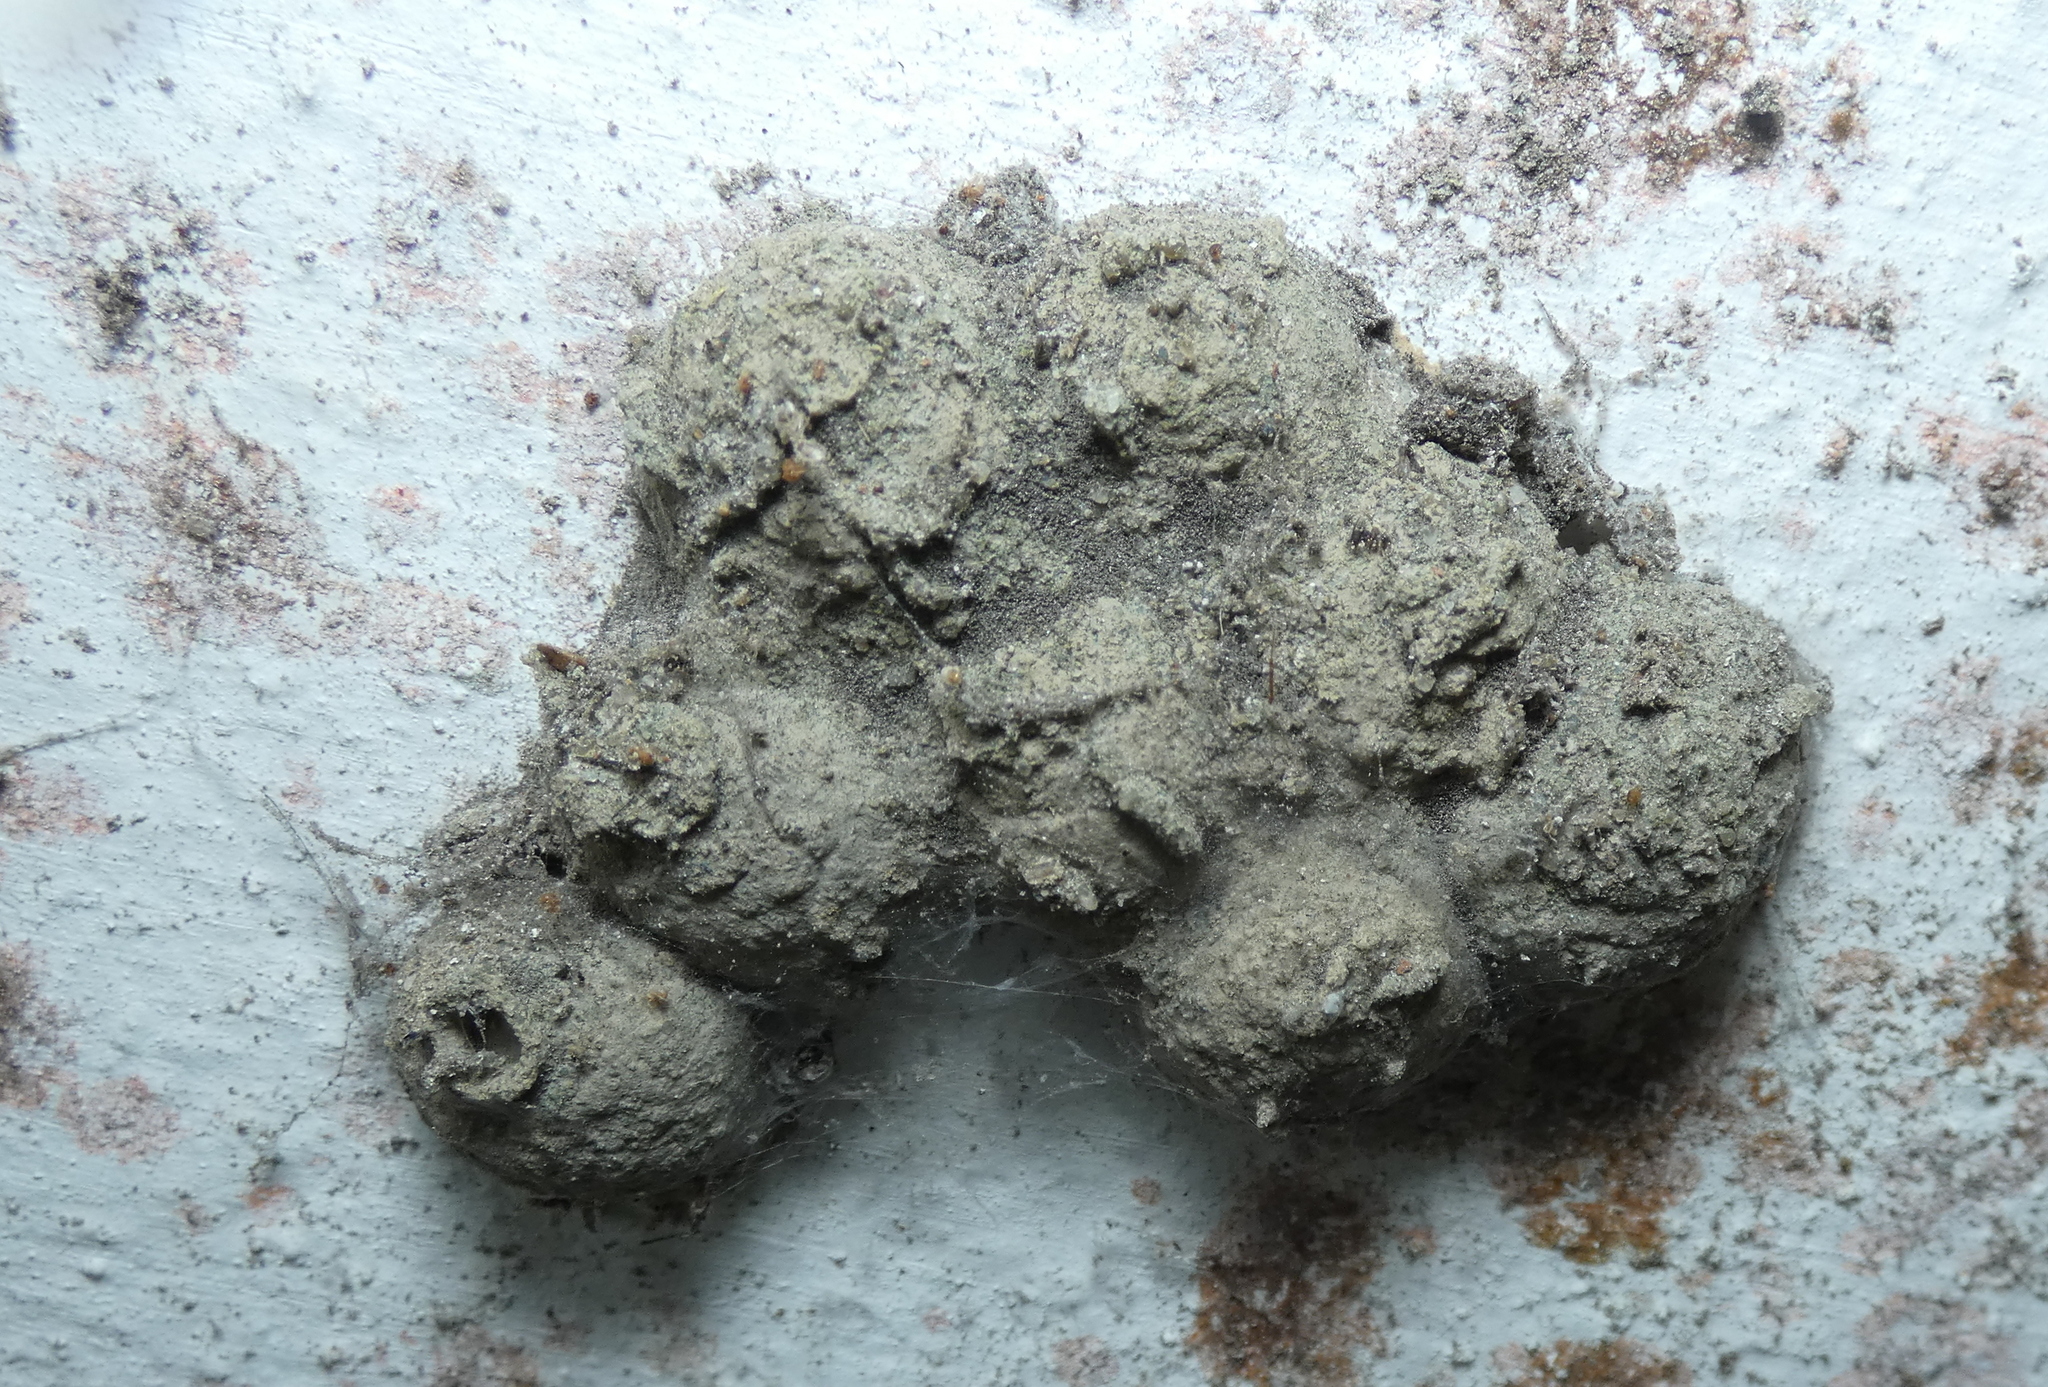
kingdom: Animalia
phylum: Arthropoda
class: Insecta
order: Hymenoptera
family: Eumenidae
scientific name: Eumenidae
